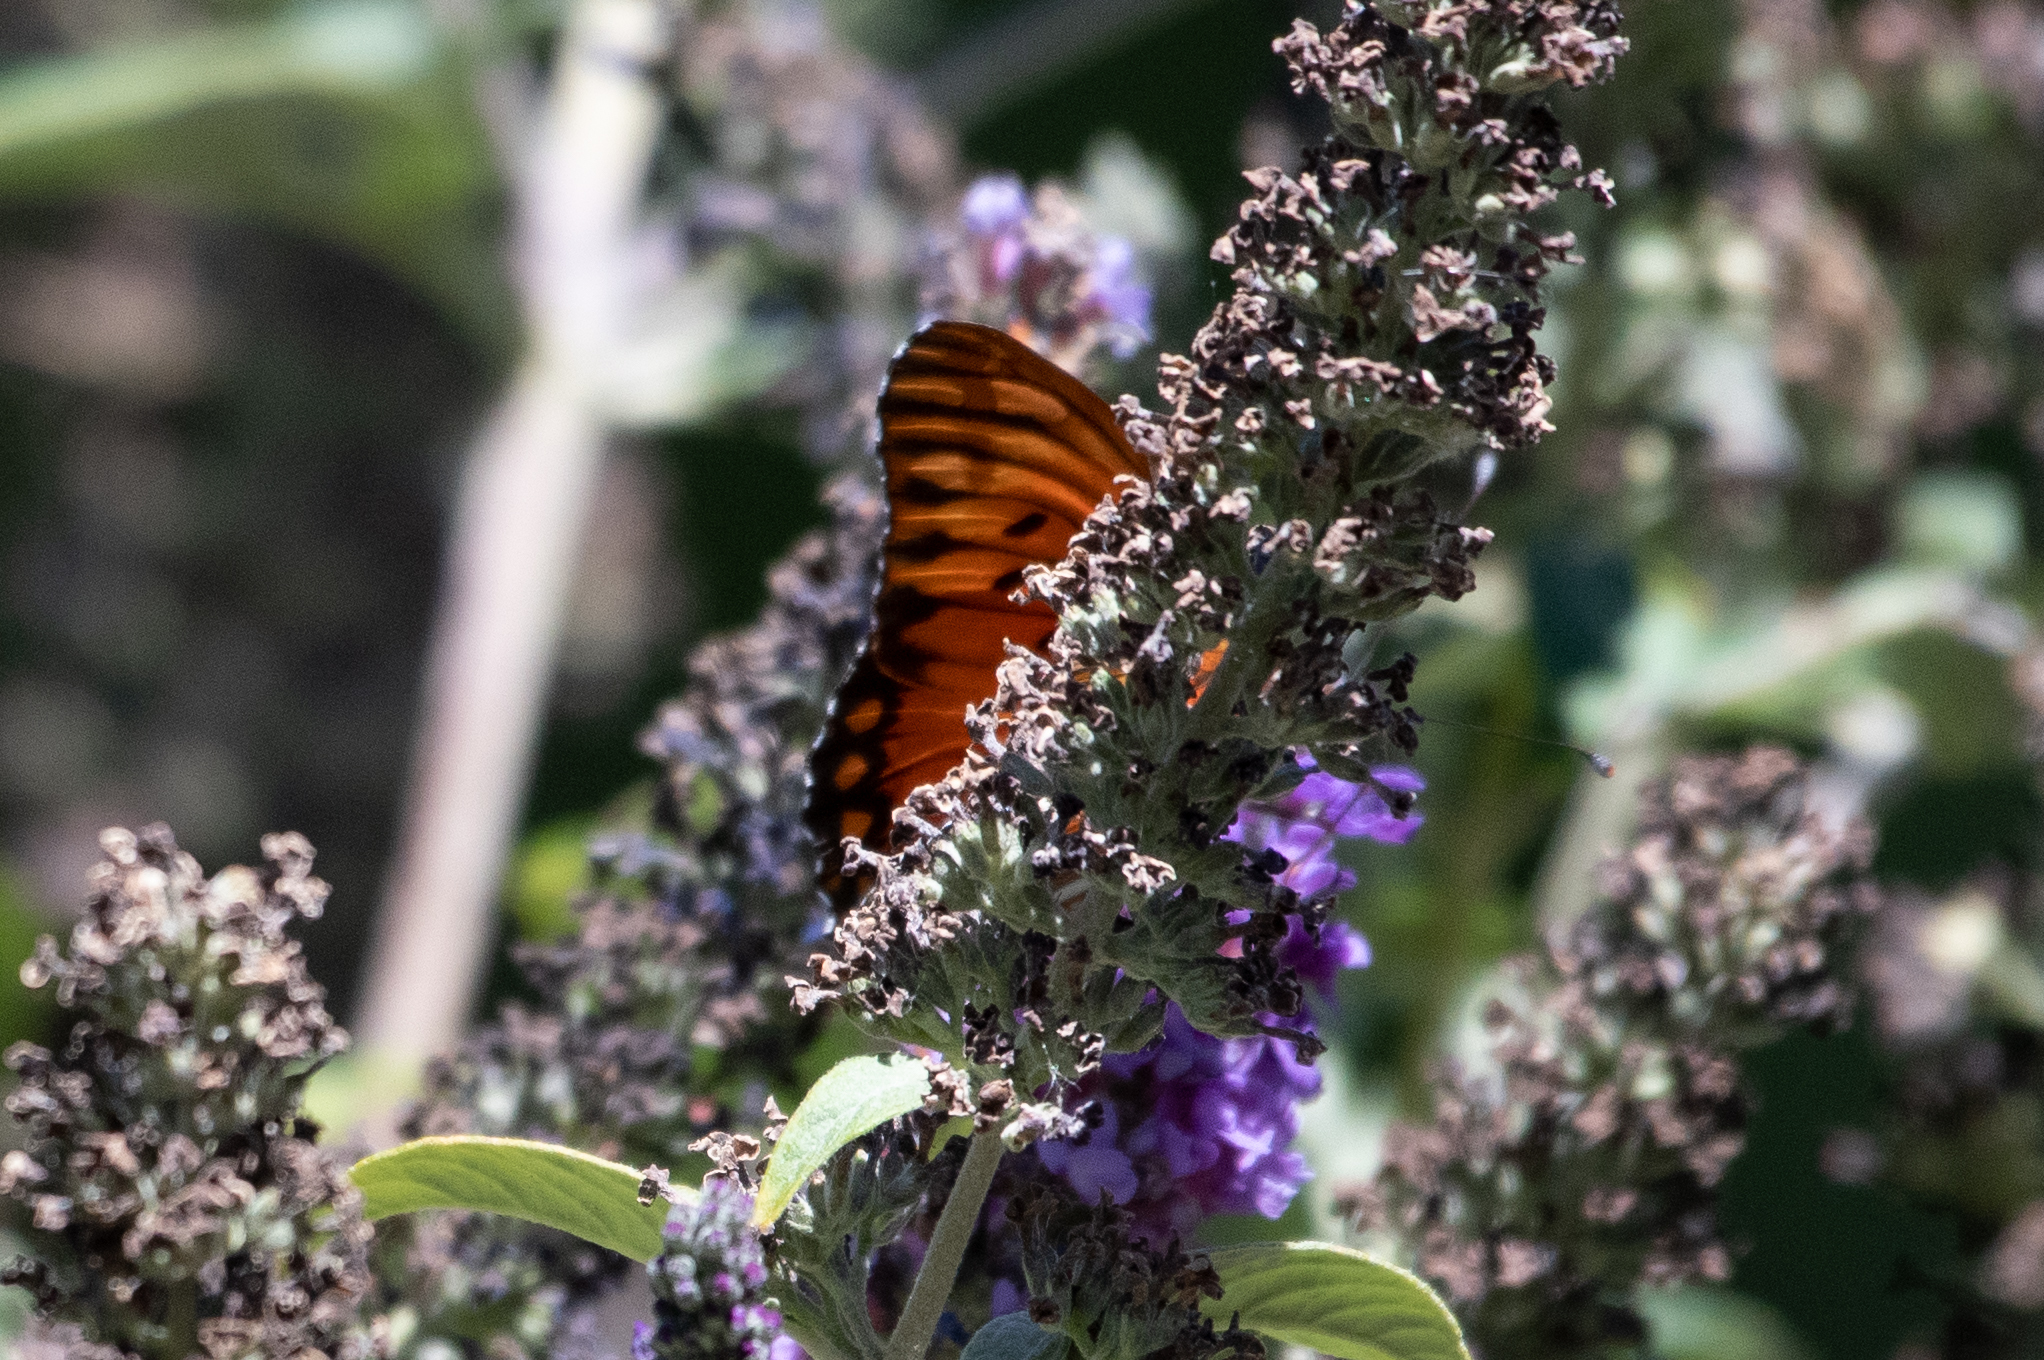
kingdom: Animalia
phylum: Arthropoda
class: Insecta
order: Lepidoptera
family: Nymphalidae
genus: Dione
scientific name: Dione vanillae
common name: Gulf fritillary
